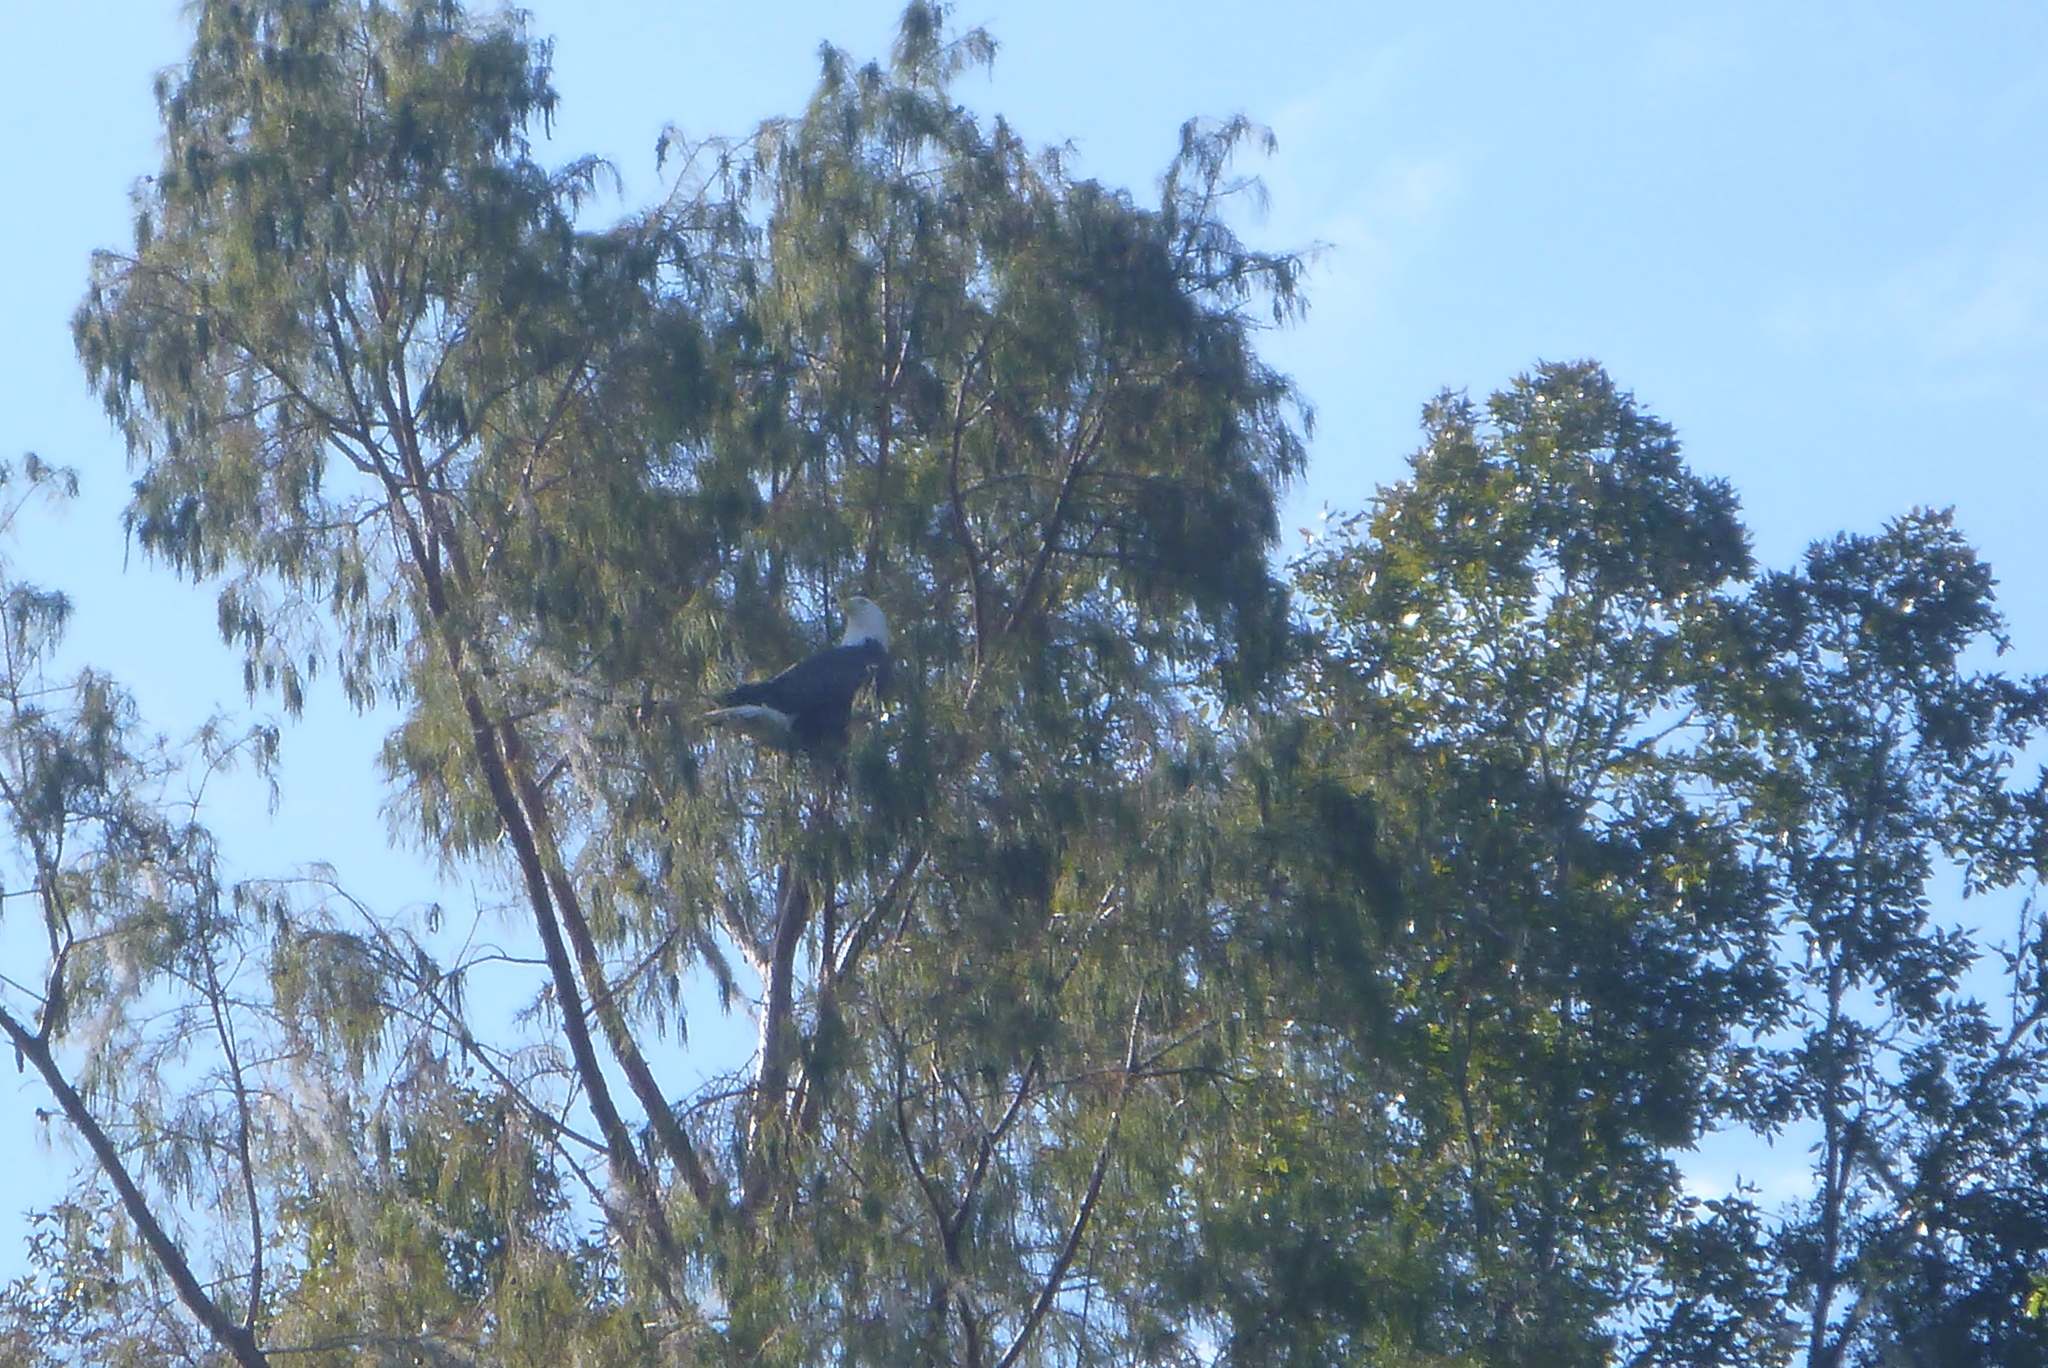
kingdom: Animalia
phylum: Chordata
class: Aves
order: Accipitriformes
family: Accipitridae
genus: Haliaeetus
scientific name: Haliaeetus leucocephalus
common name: Bald eagle
